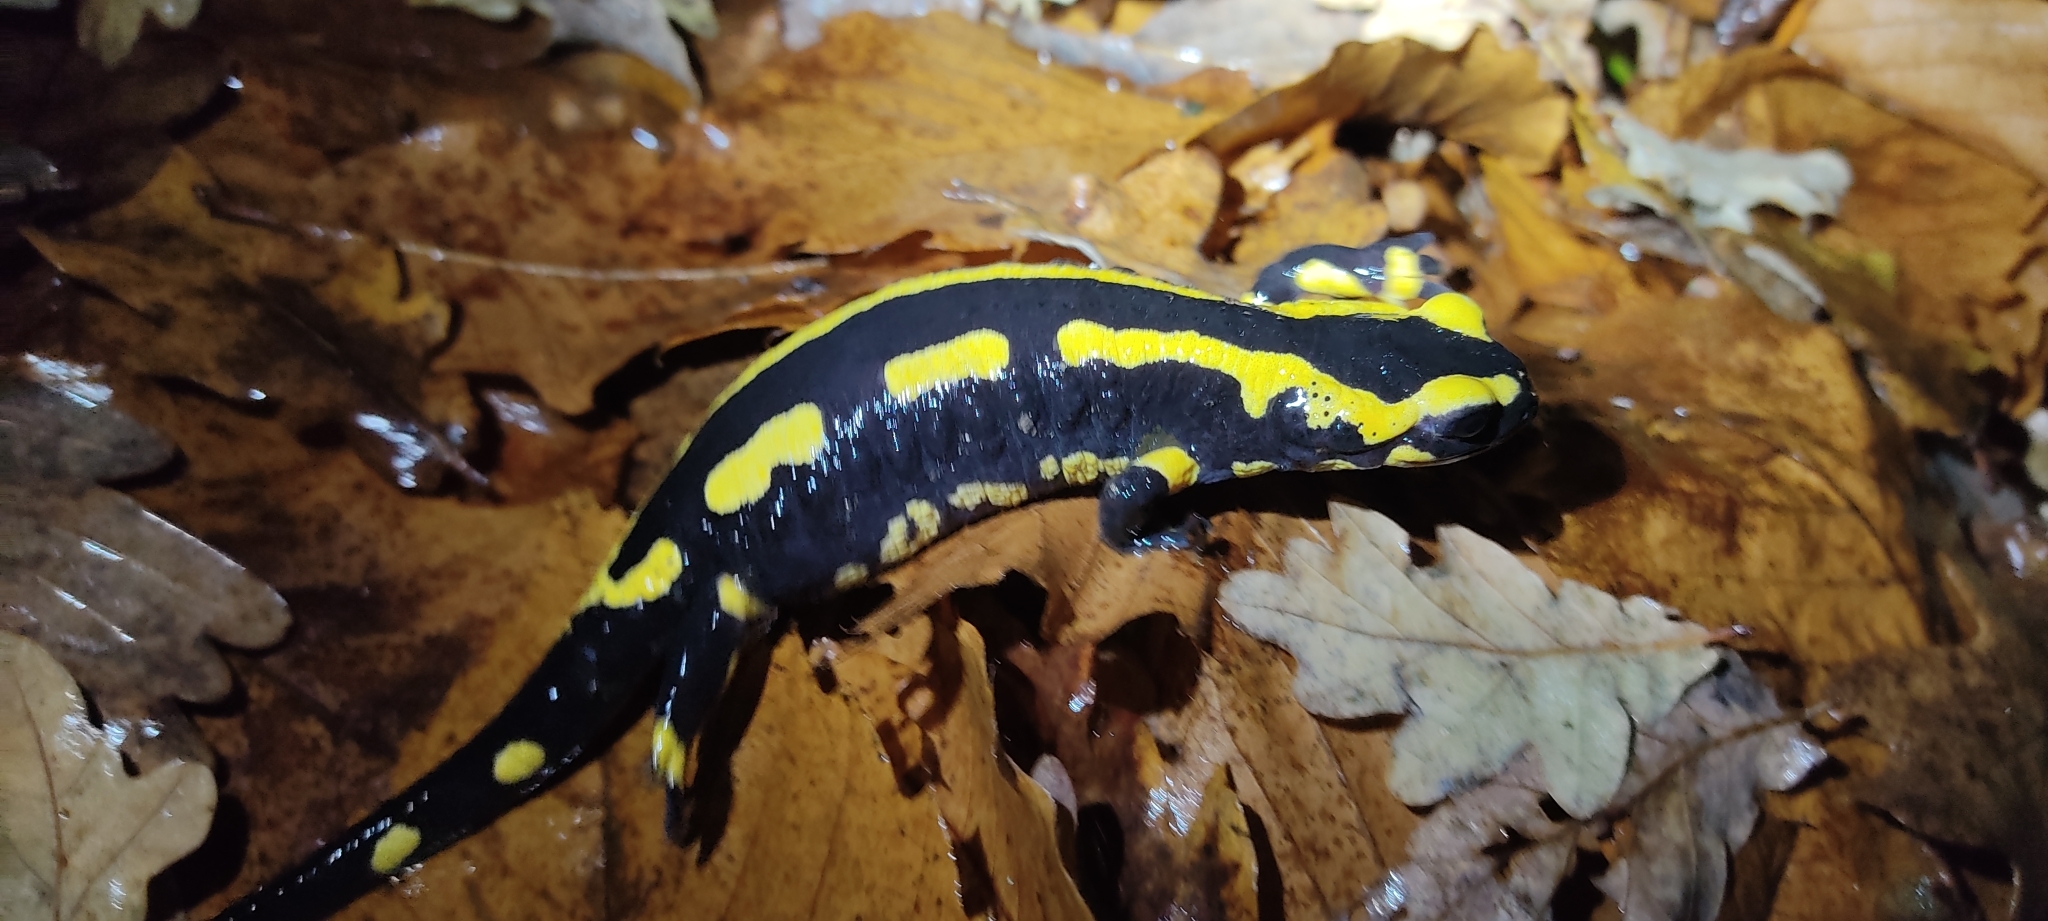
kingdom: Animalia
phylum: Chordata
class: Amphibia
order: Caudata
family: Salamandridae
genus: Salamandra
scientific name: Salamandra salamandra
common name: Fire salamander
